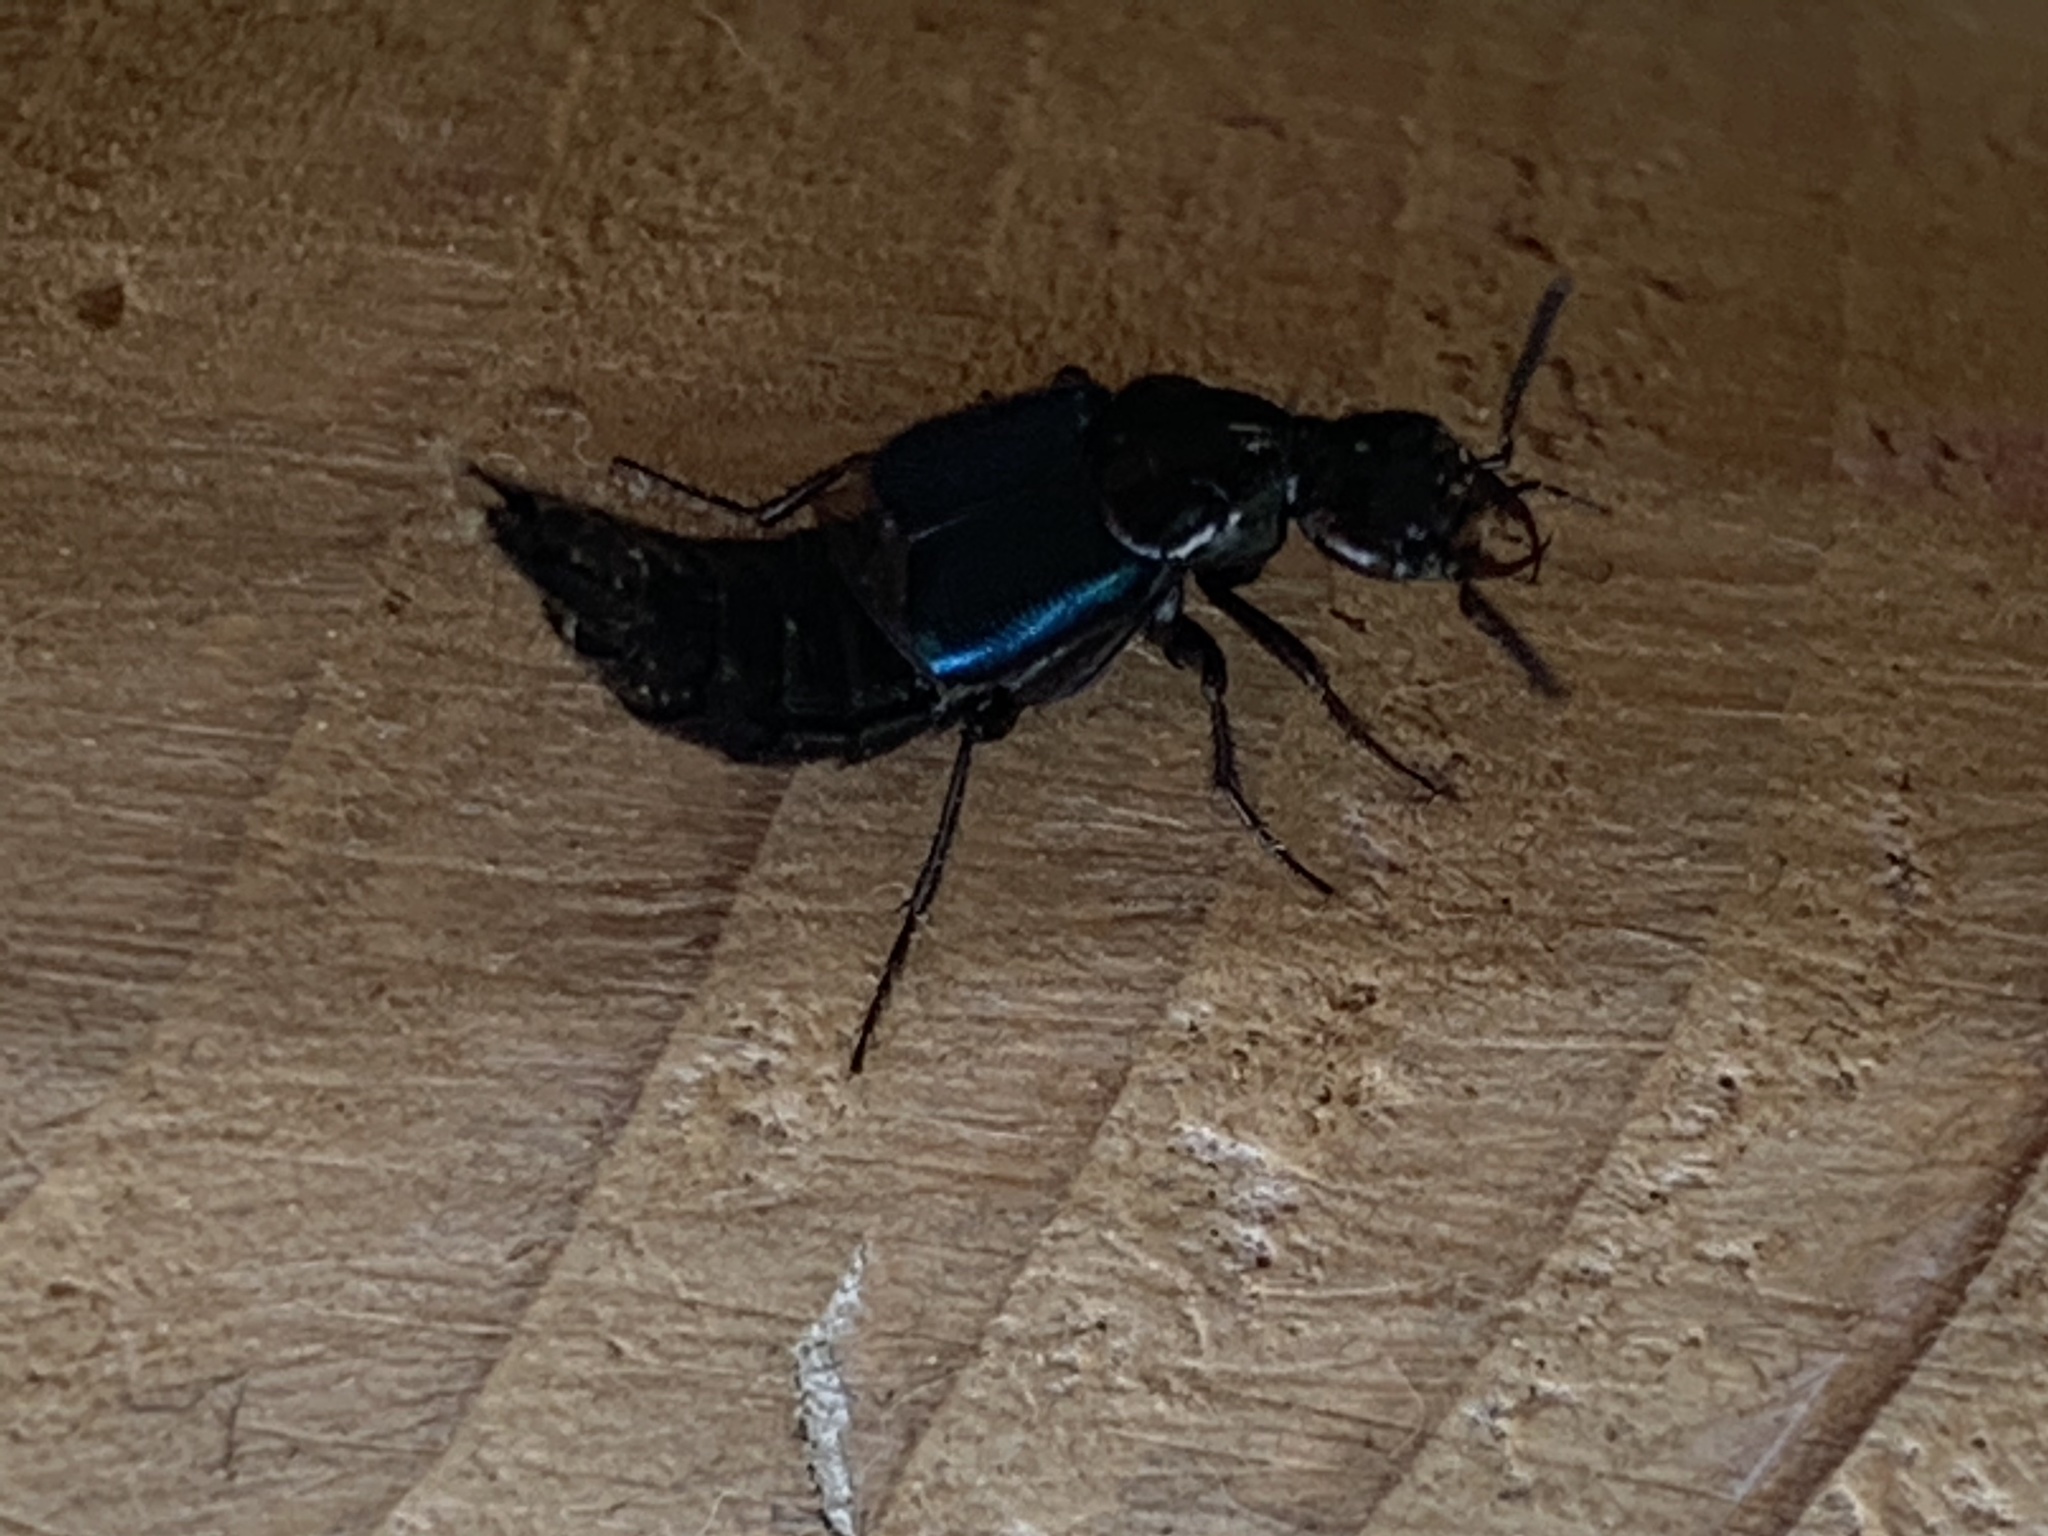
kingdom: Animalia
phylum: Arthropoda
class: Insecta
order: Coleoptera
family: Staphylinidae
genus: Philonthus
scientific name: Philonthus caeruleipennis
